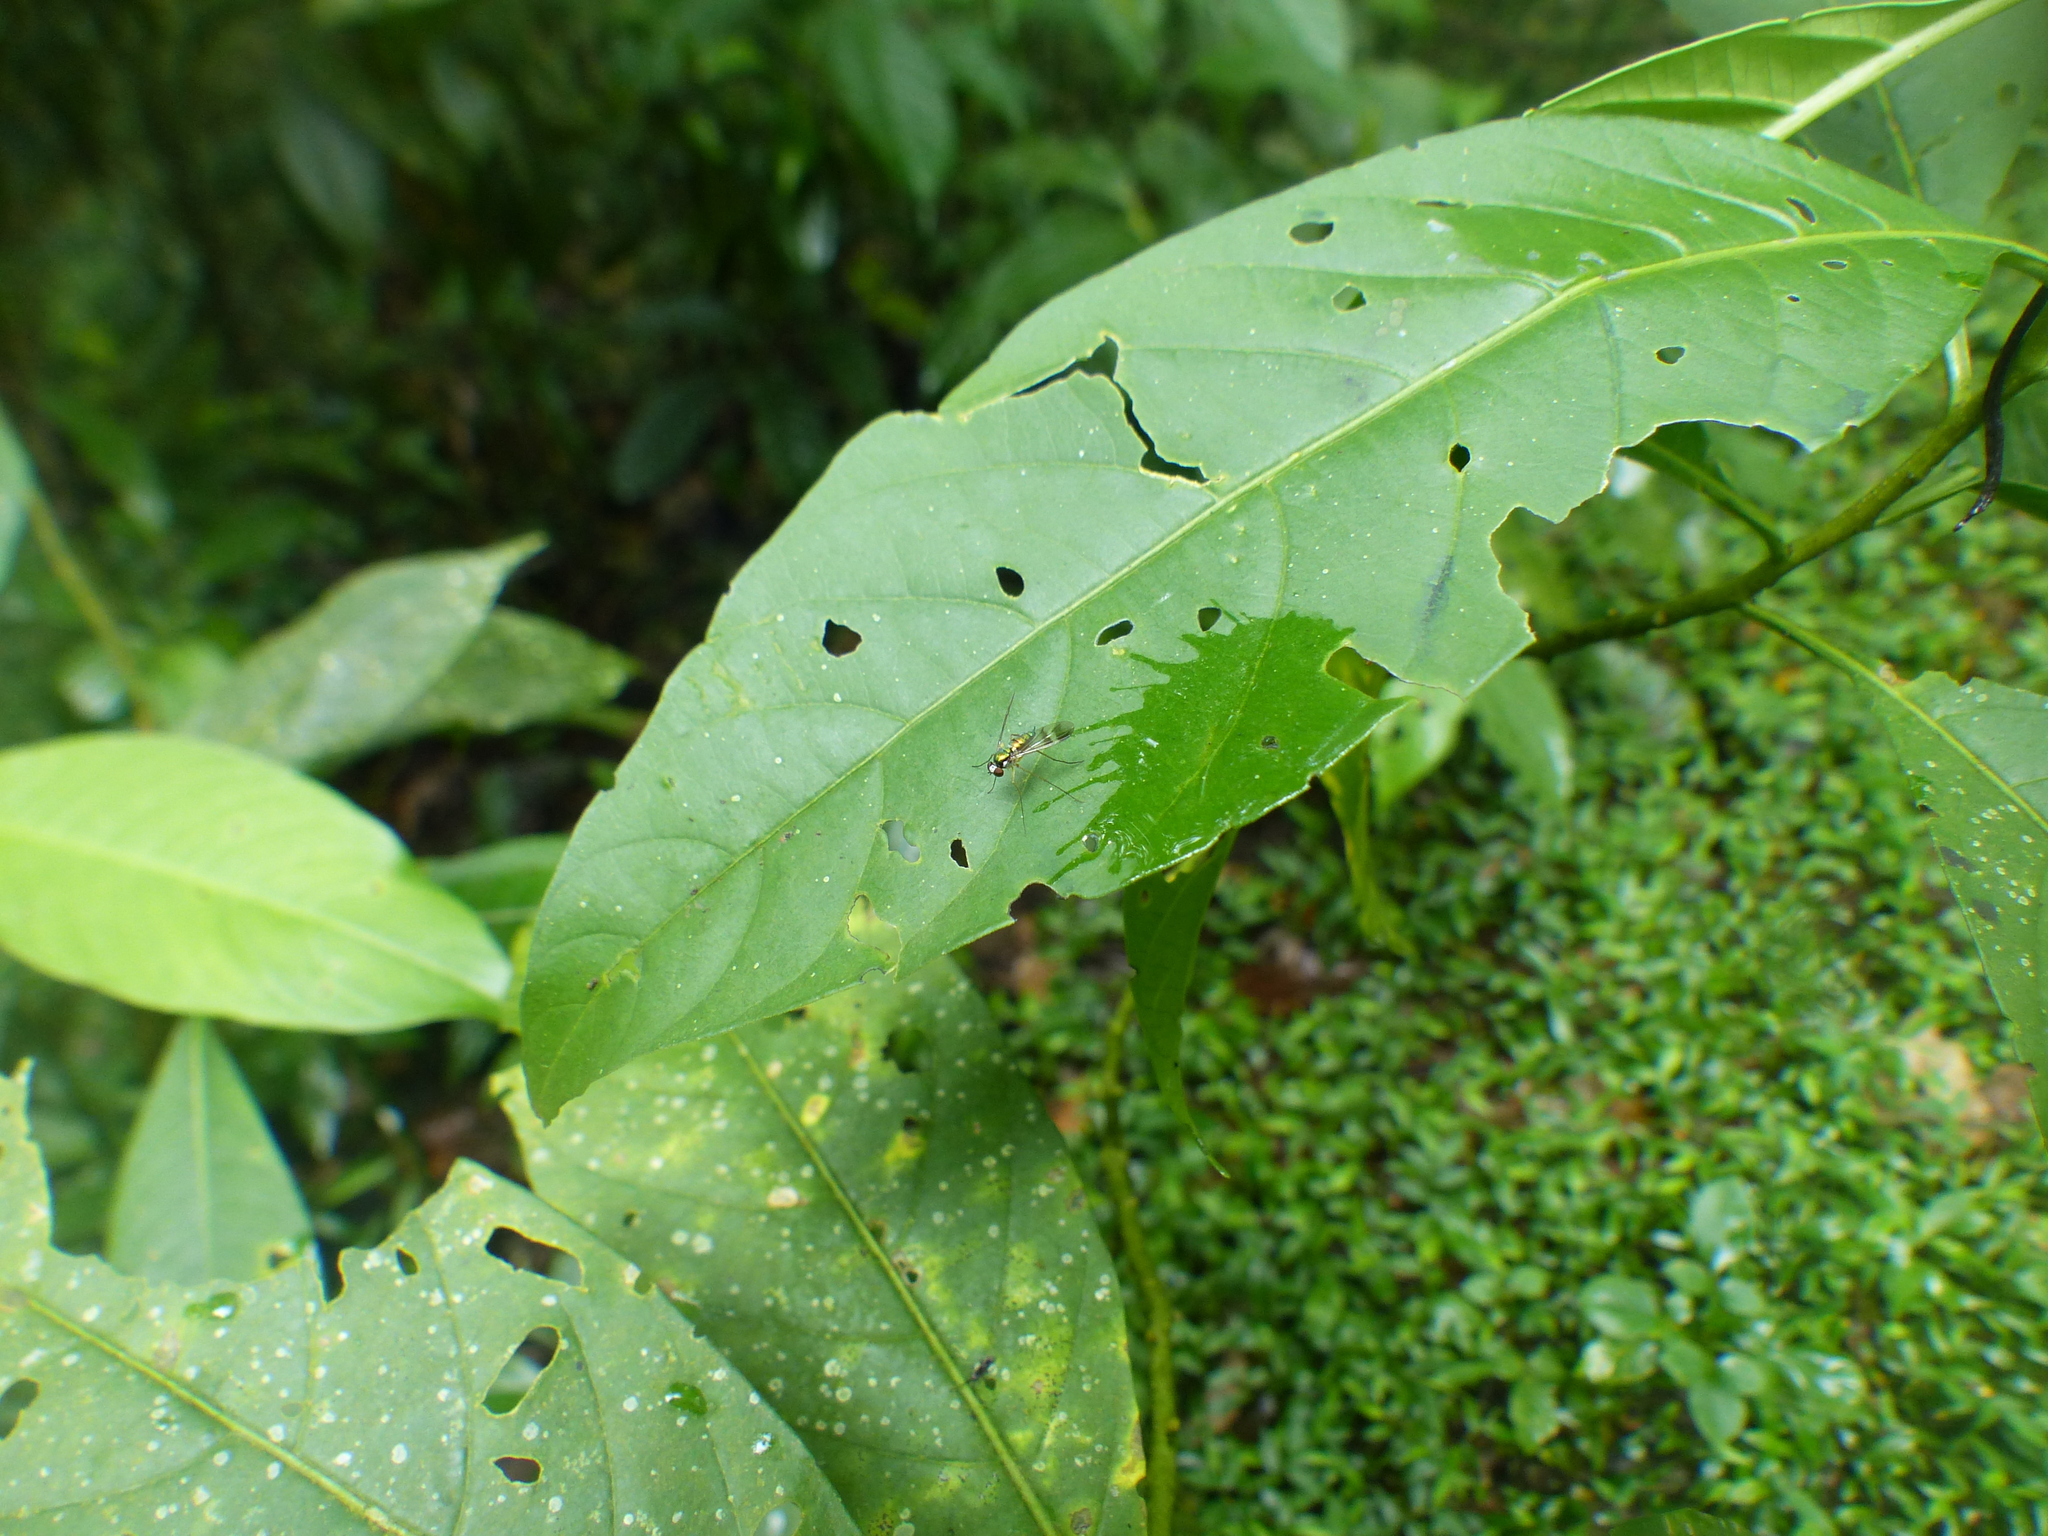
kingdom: Animalia
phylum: Arthropoda
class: Insecta
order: Diptera
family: Dolichopodidae
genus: Condylostylus
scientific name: Condylostylus flavicoxa
